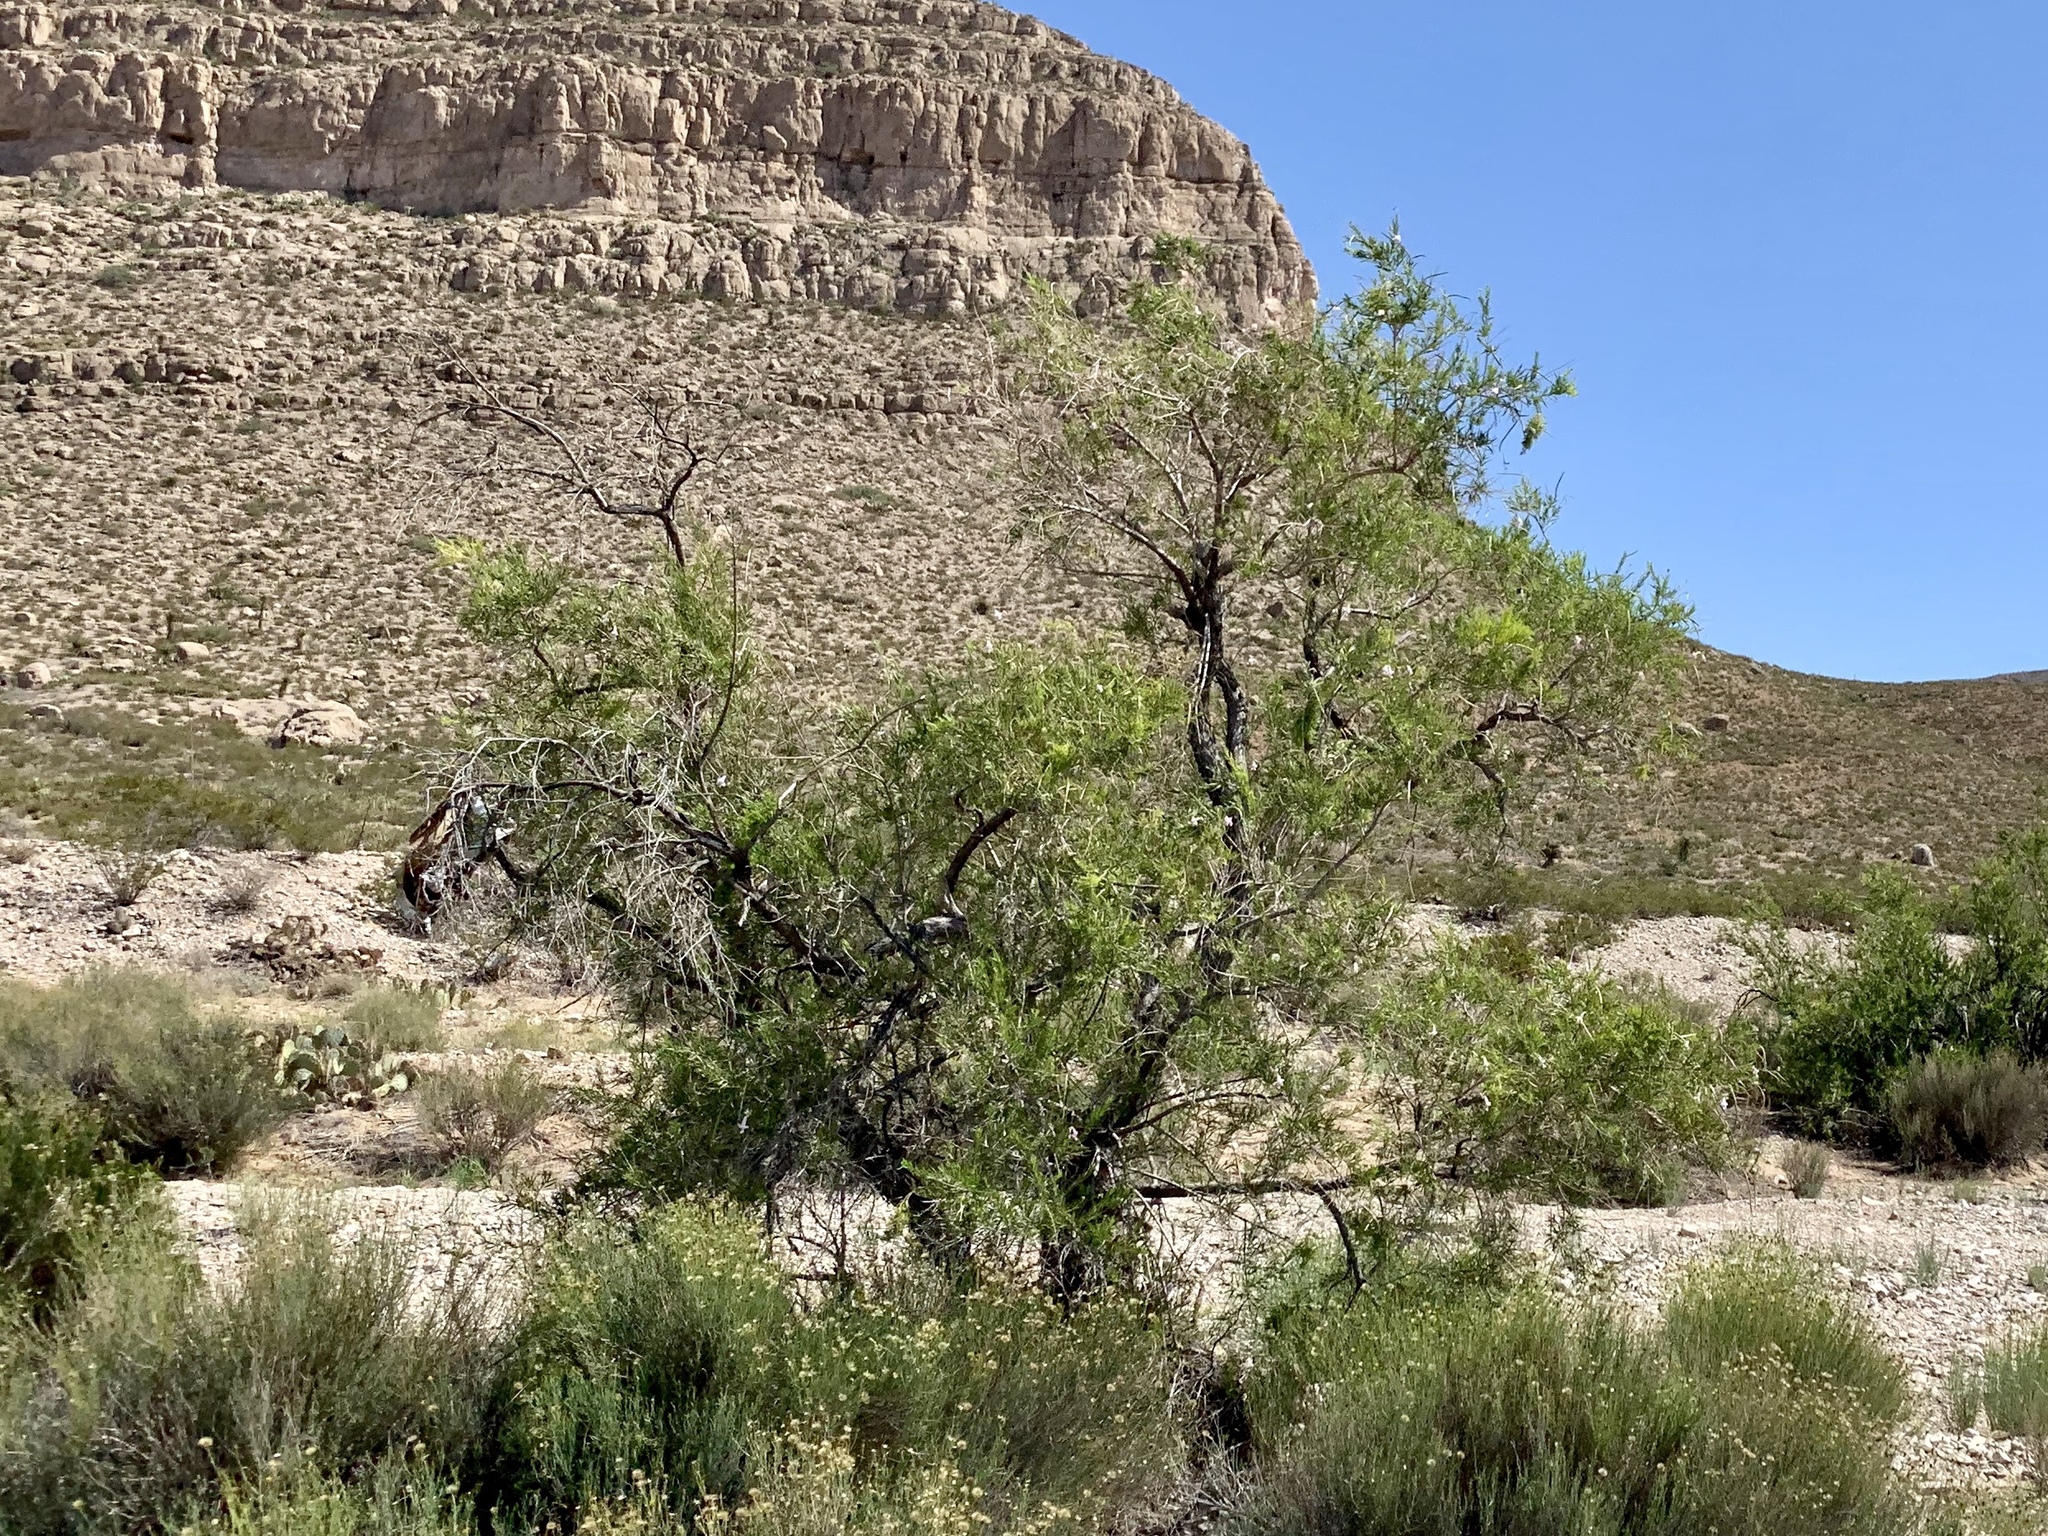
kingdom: Plantae
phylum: Tracheophyta
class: Magnoliopsida
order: Lamiales
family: Bignoniaceae
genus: Chilopsis
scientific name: Chilopsis linearis
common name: Desert-willow
